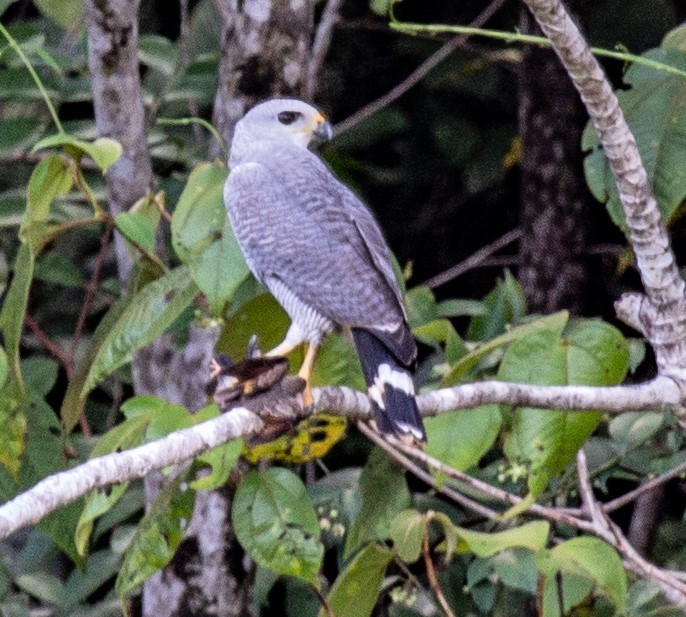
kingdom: Animalia
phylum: Chordata
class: Aves
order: Accipitriformes
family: Accipitridae
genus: Buteo
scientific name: Buteo nitidus
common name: Grey-lined hawk
